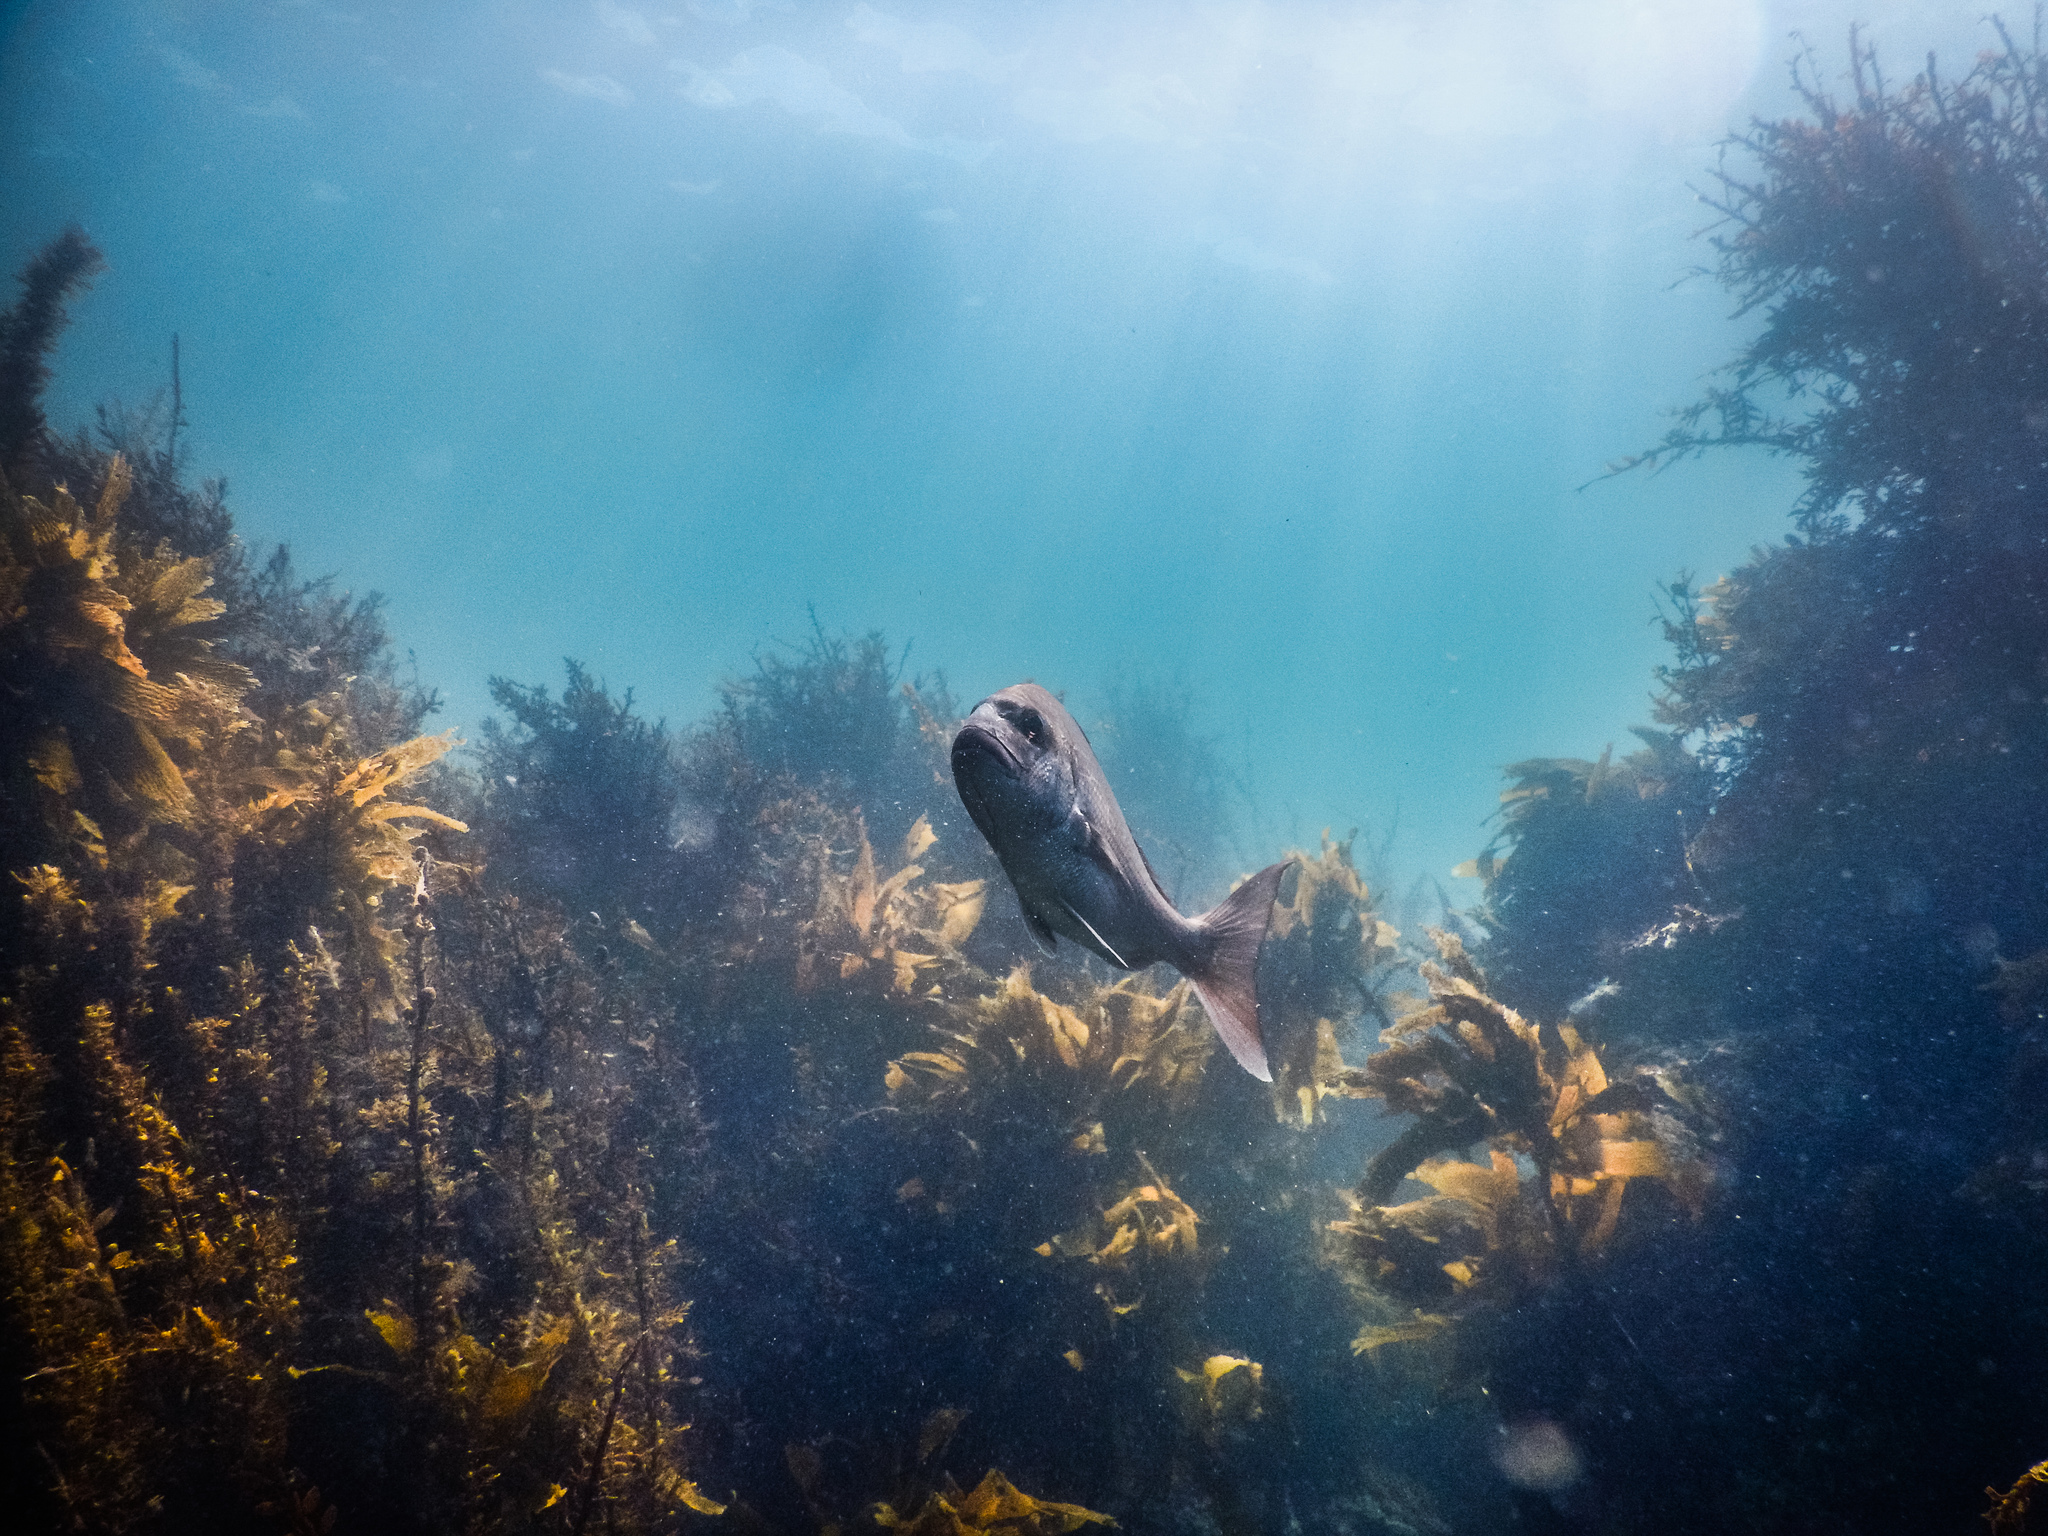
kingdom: Animalia
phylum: Chordata
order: Perciformes
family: Sparidae
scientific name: Sparidae
